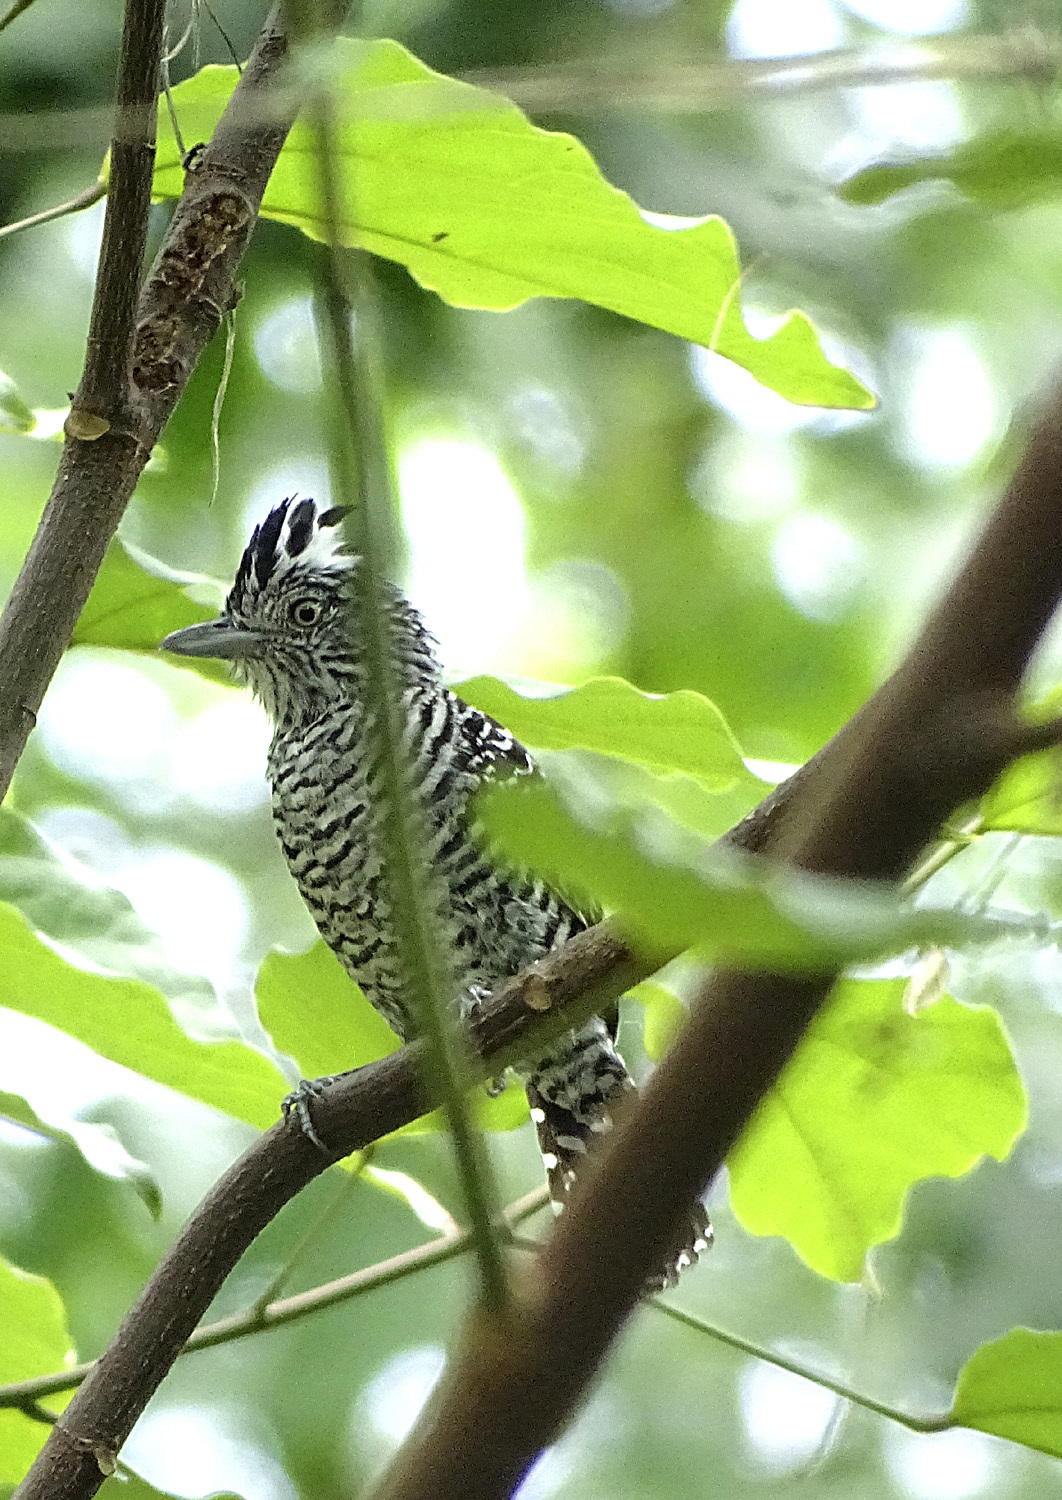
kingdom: Animalia
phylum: Chordata
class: Aves
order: Passeriformes
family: Thamnophilidae
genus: Thamnophilus
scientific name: Thamnophilus doliatus
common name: Barred antshrike
